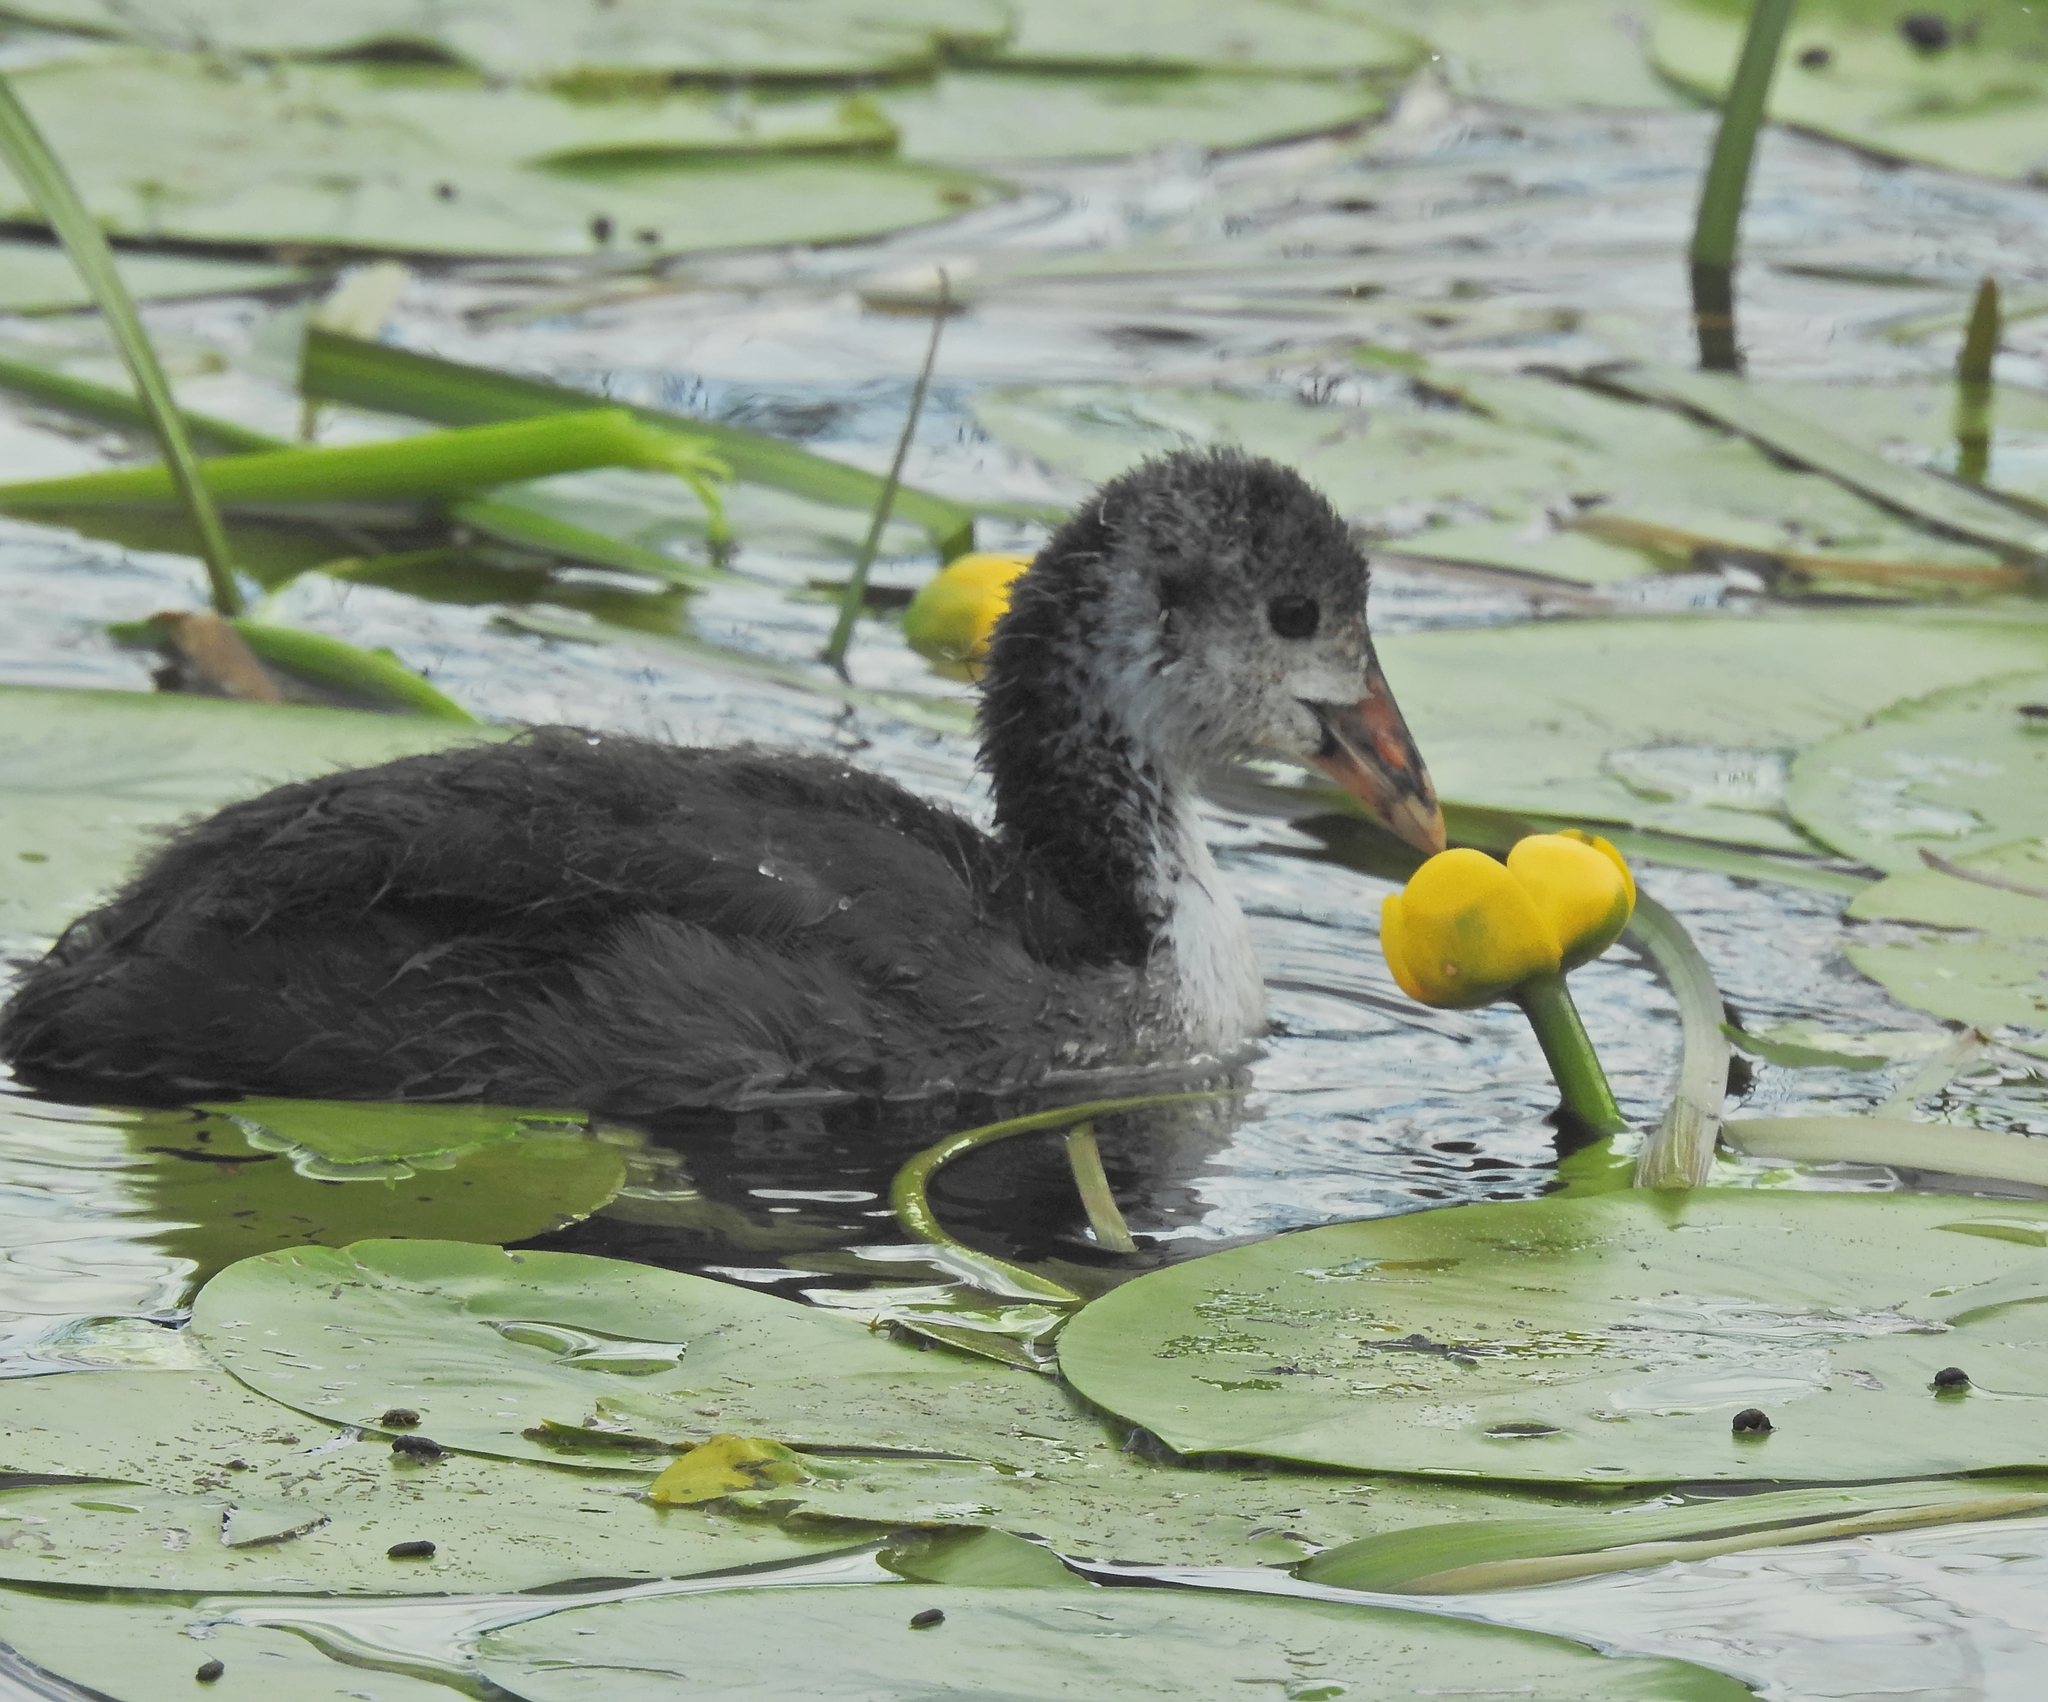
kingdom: Animalia
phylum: Chordata
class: Aves
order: Gruiformes
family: Rallidae
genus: Fulica
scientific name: Fulica atra
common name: Eurasian coot
